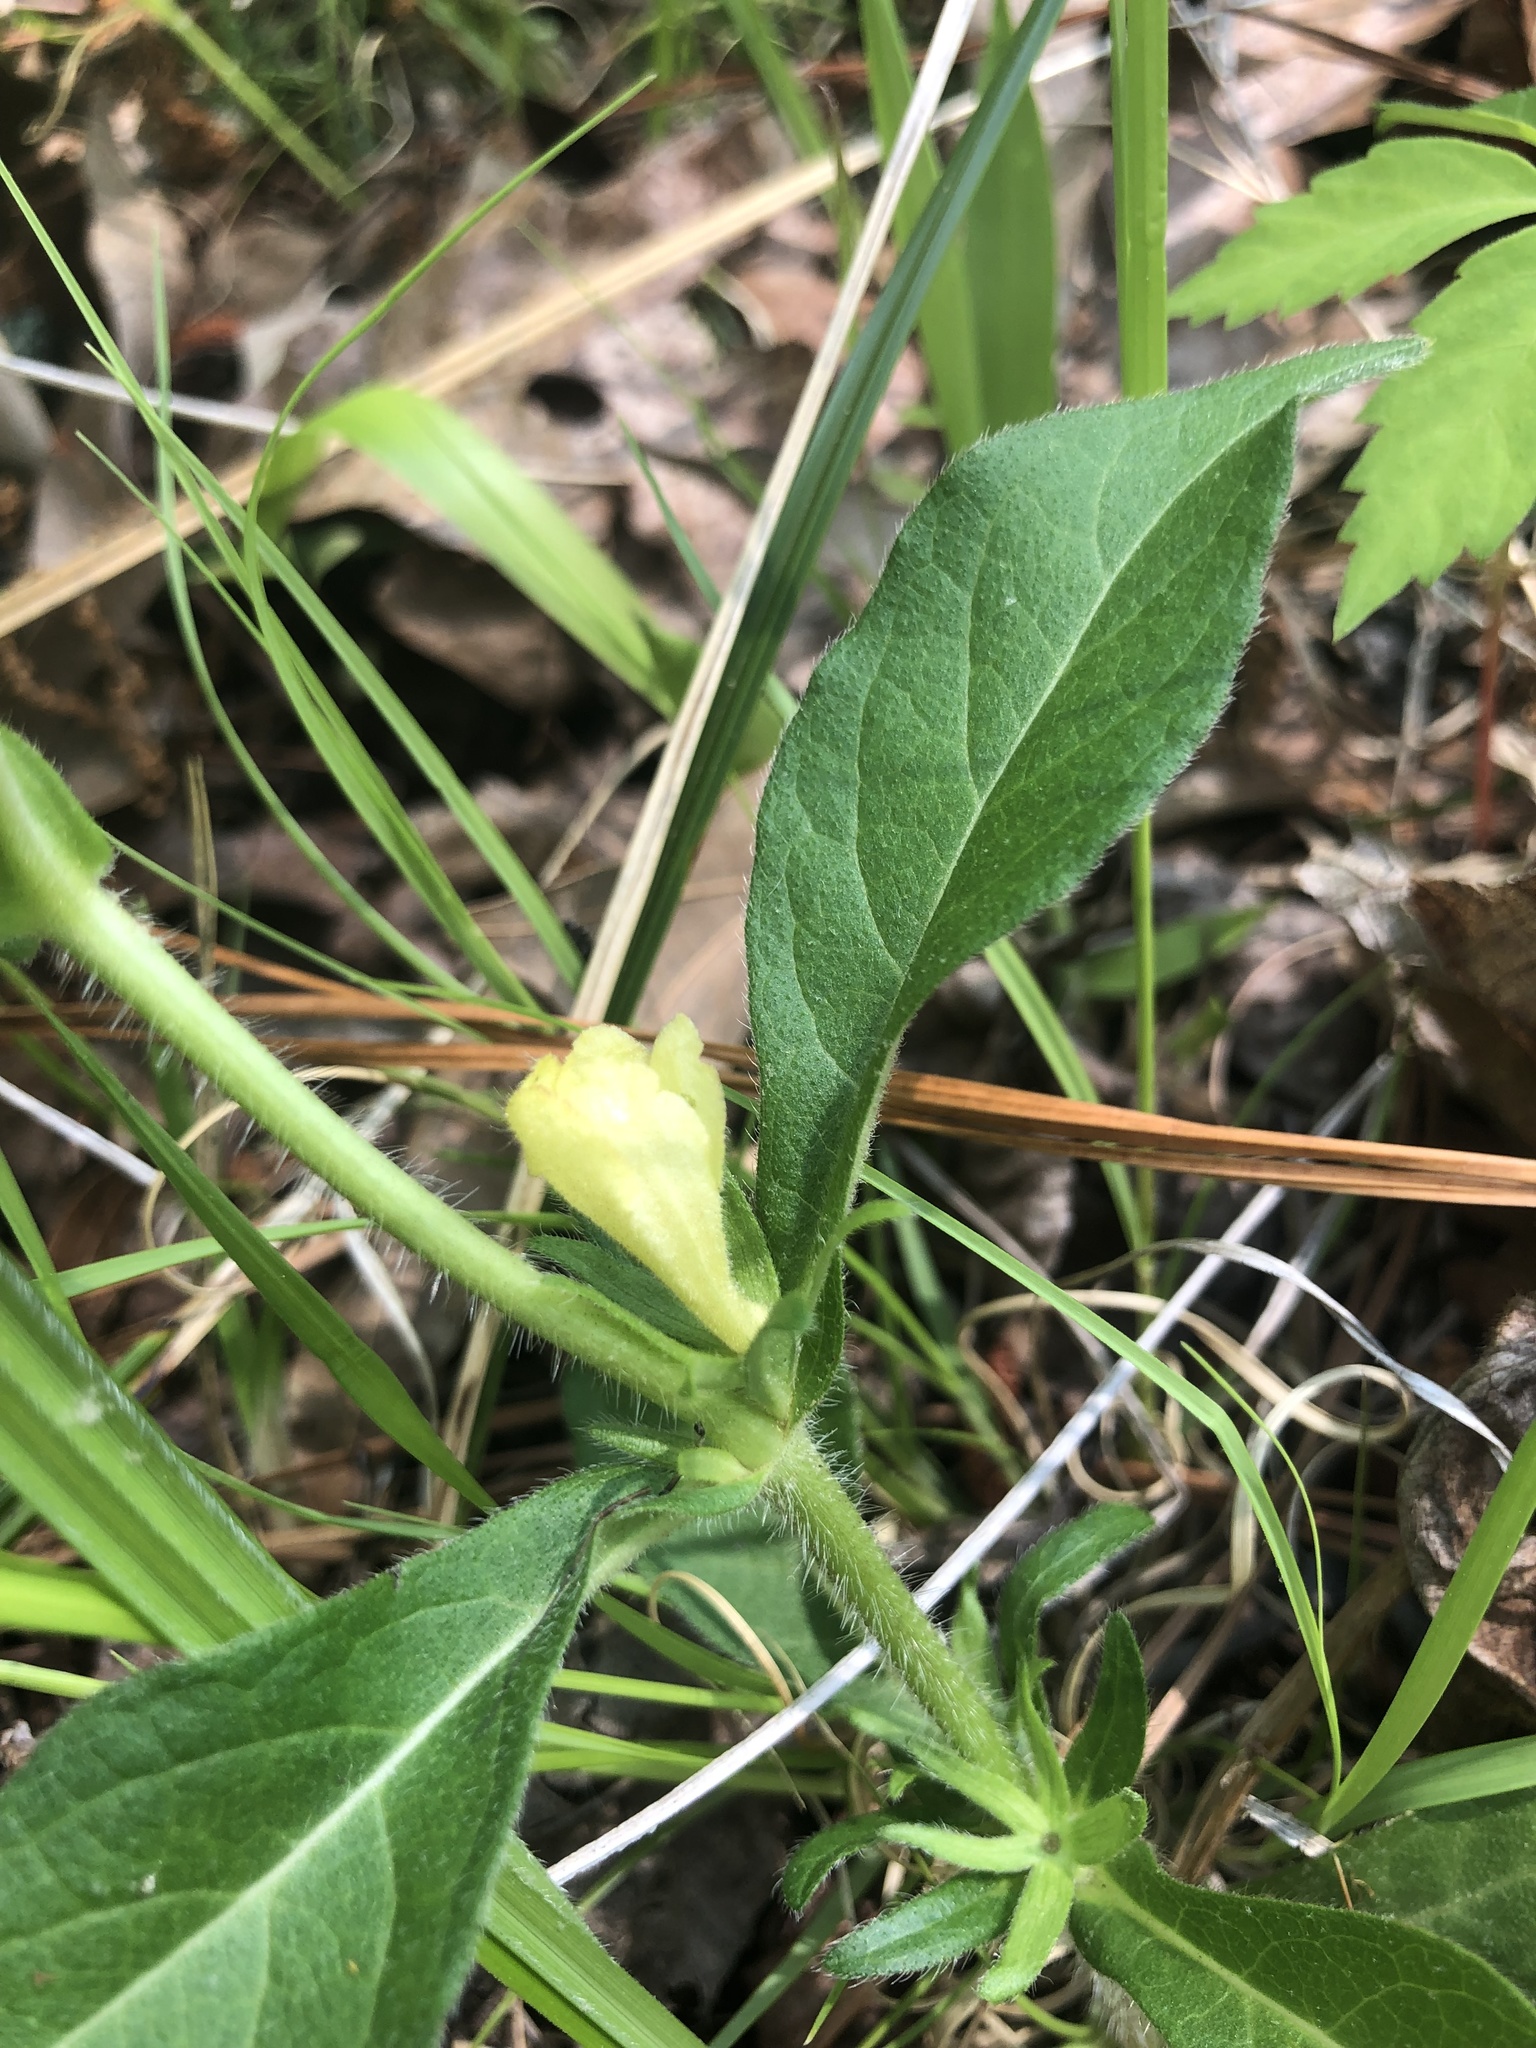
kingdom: Plantae
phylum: Tracheophyta
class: Magnoliopsida
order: Dipsacales
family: Caprifoliaceae
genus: Triosteum
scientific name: Triosteum angustifolium
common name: Narrow-leaved horse-gentian
